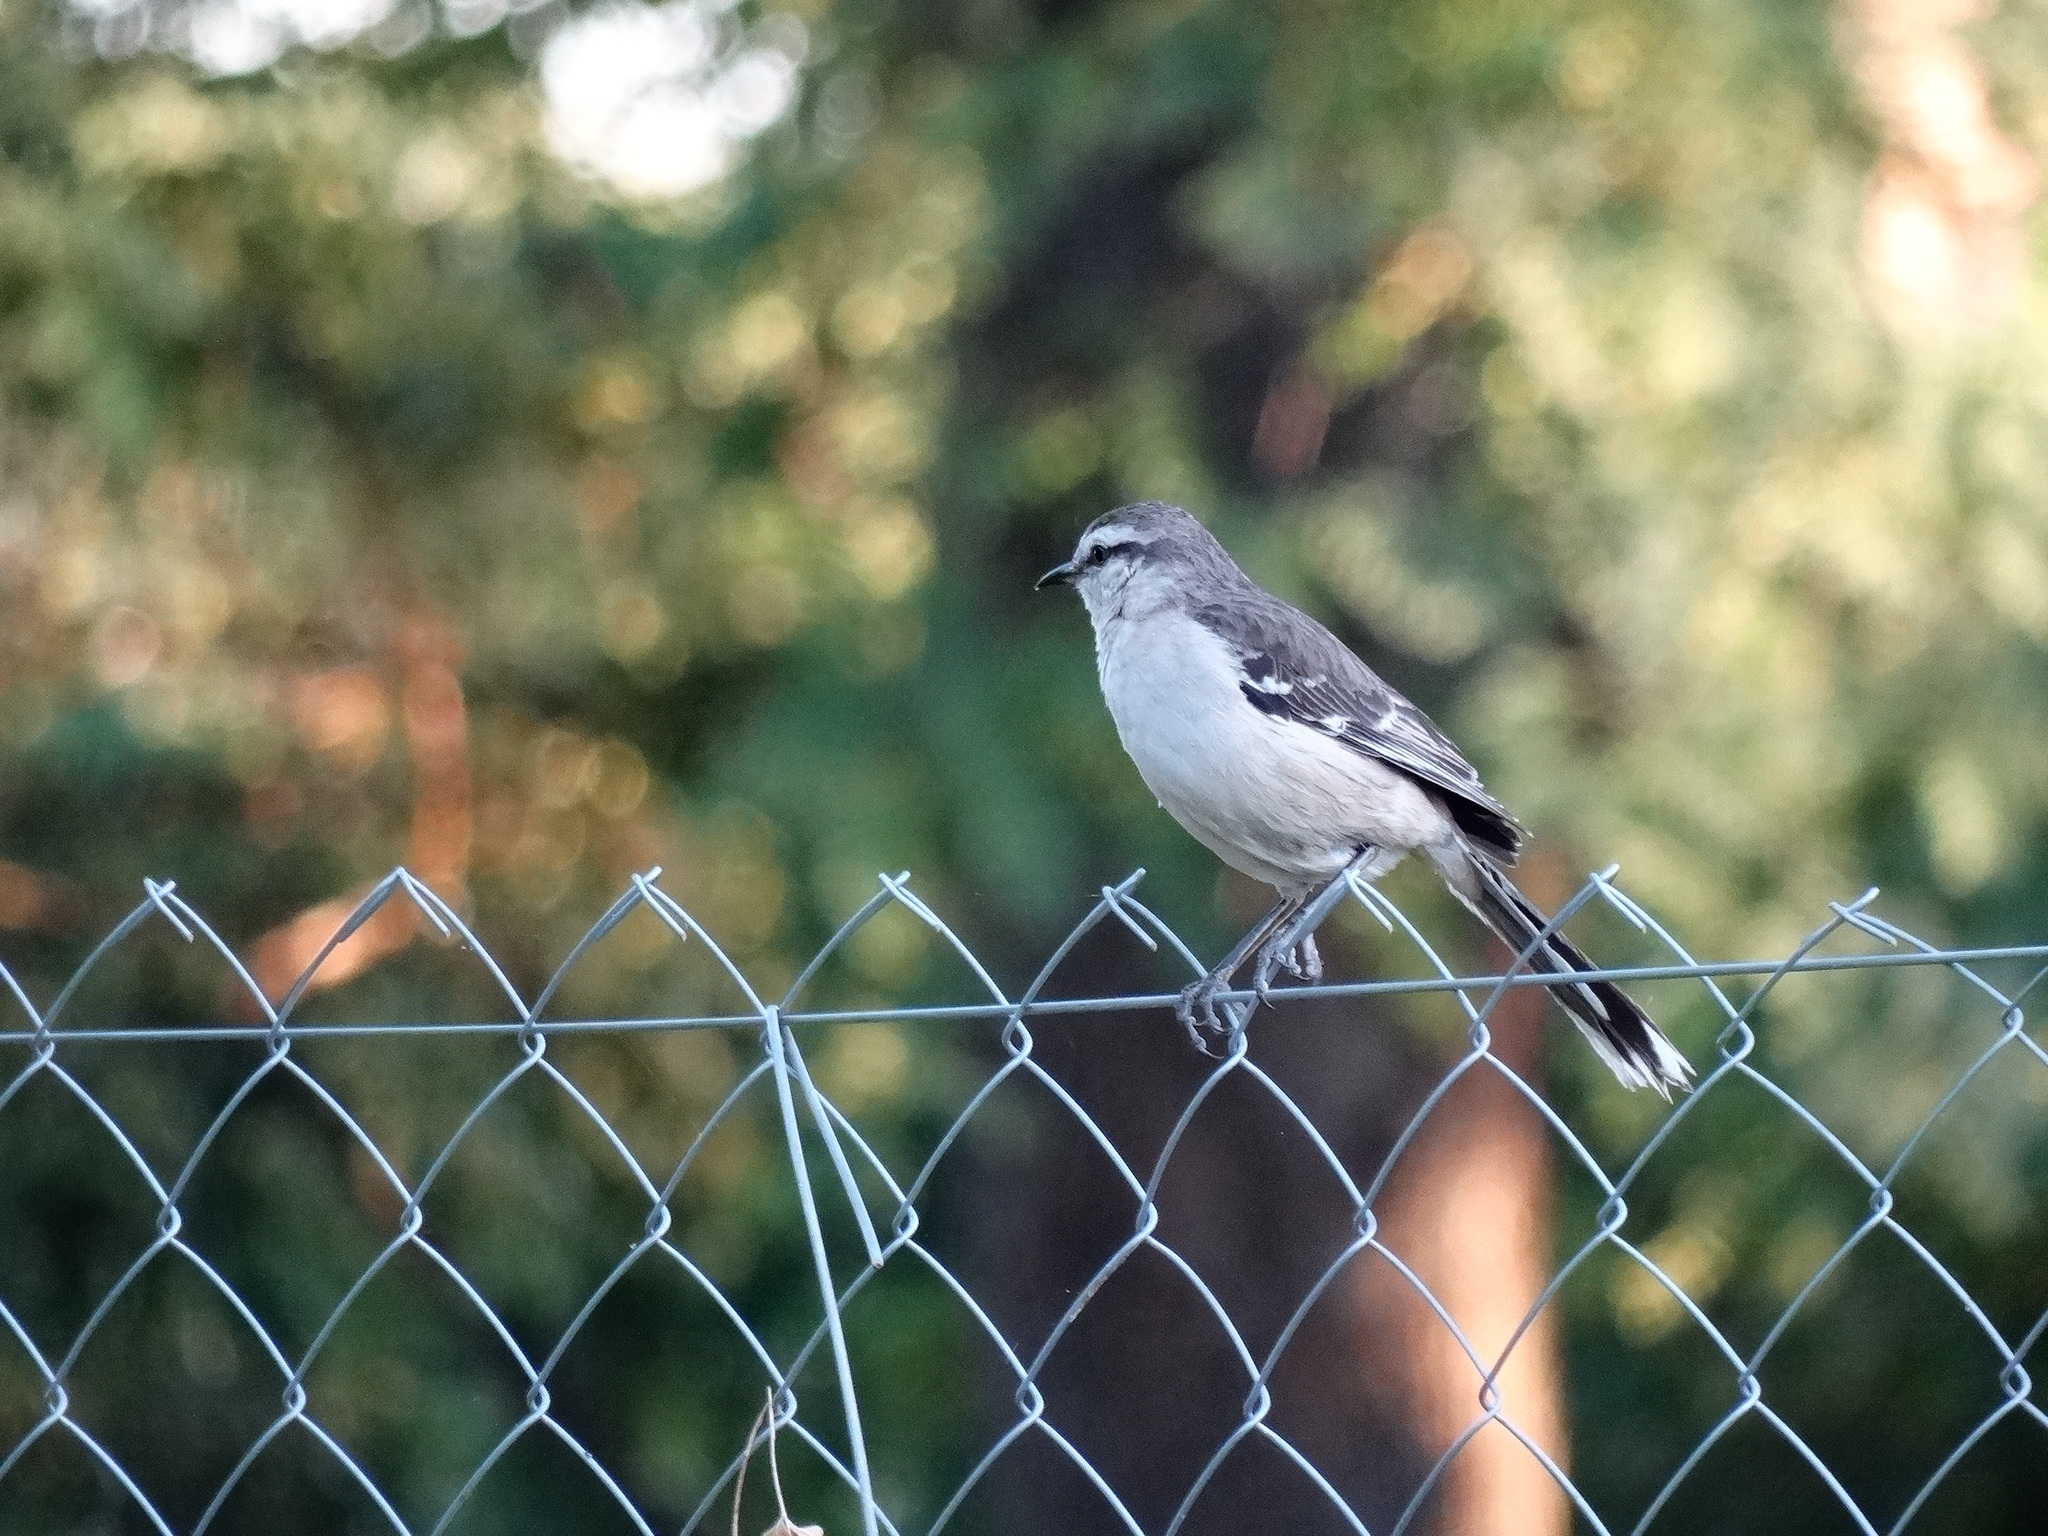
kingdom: Animalia
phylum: Chordata
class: Aves
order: Passeriformes
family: Mimidae
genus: Mimus
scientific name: Mimus saturninus
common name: Chalk-browed mockingbird
